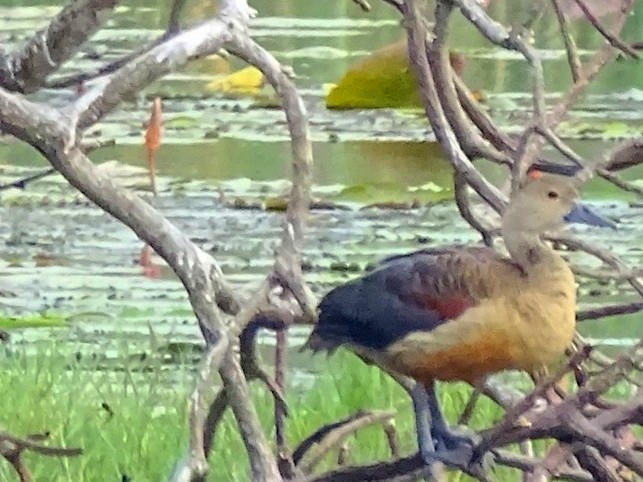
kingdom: Animalia
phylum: Chordata
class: Aves
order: Anseriformes
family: Anatidae
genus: Dendrocygna
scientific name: Dendrocygna javanica
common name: Lesser whistling-duck
